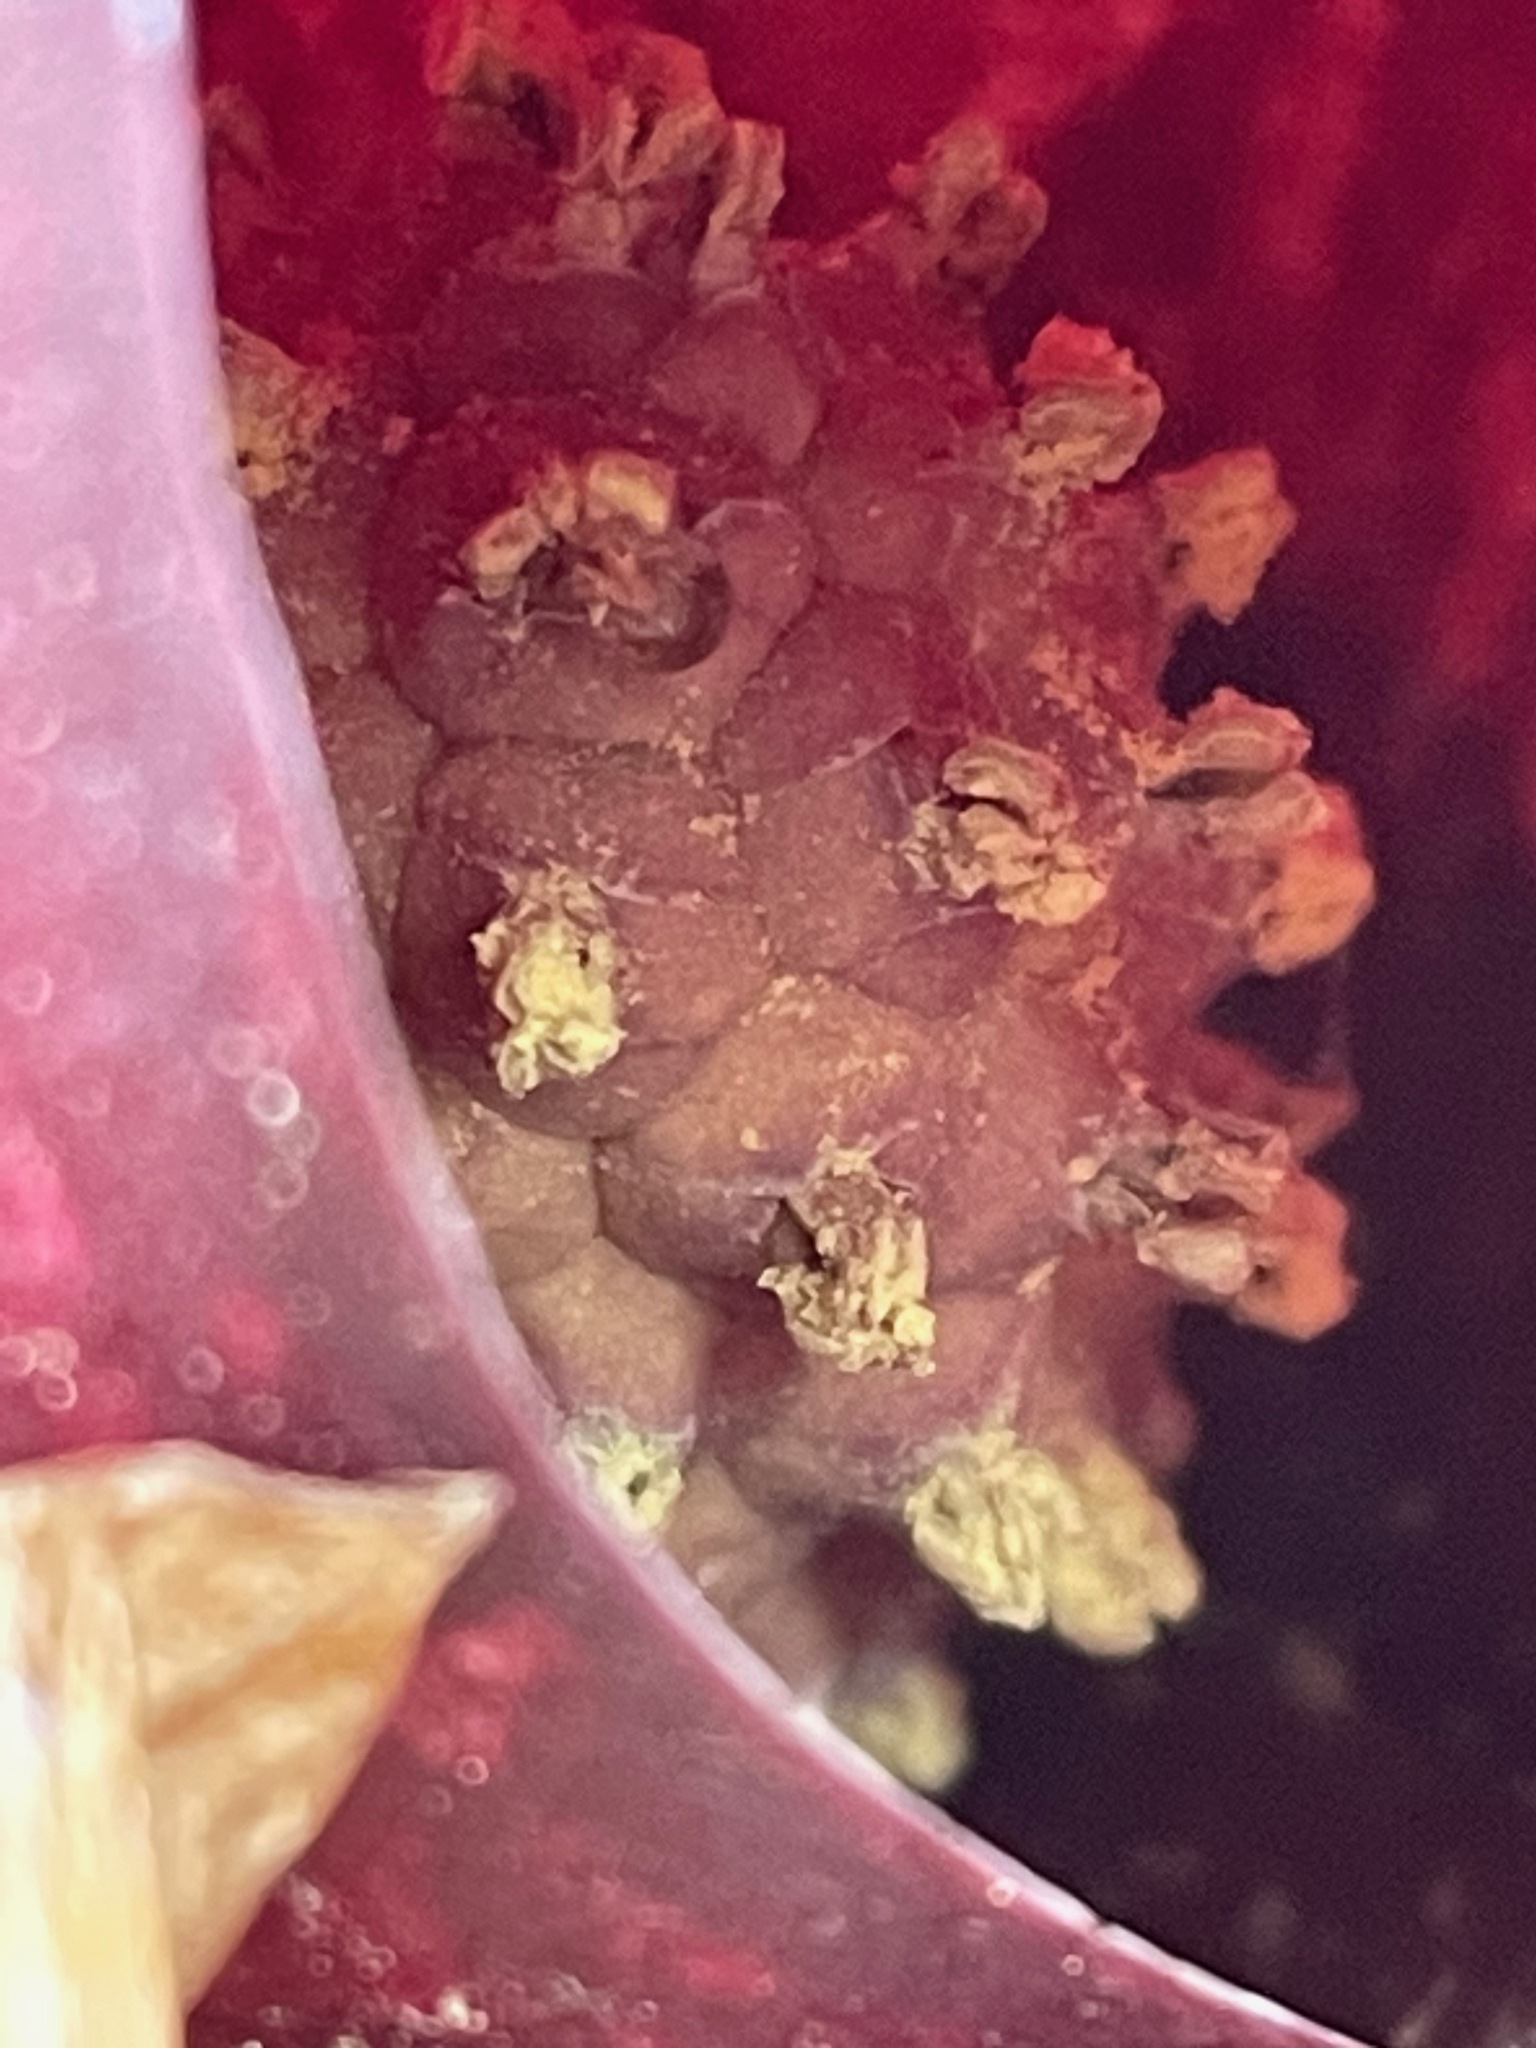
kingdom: Plantae
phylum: Tracheophyta
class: Liliopsida
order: Alismatales
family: Araceae
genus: Symplocarpus
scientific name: Symplocarpus foetidus
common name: Eastern skunk cabbage
